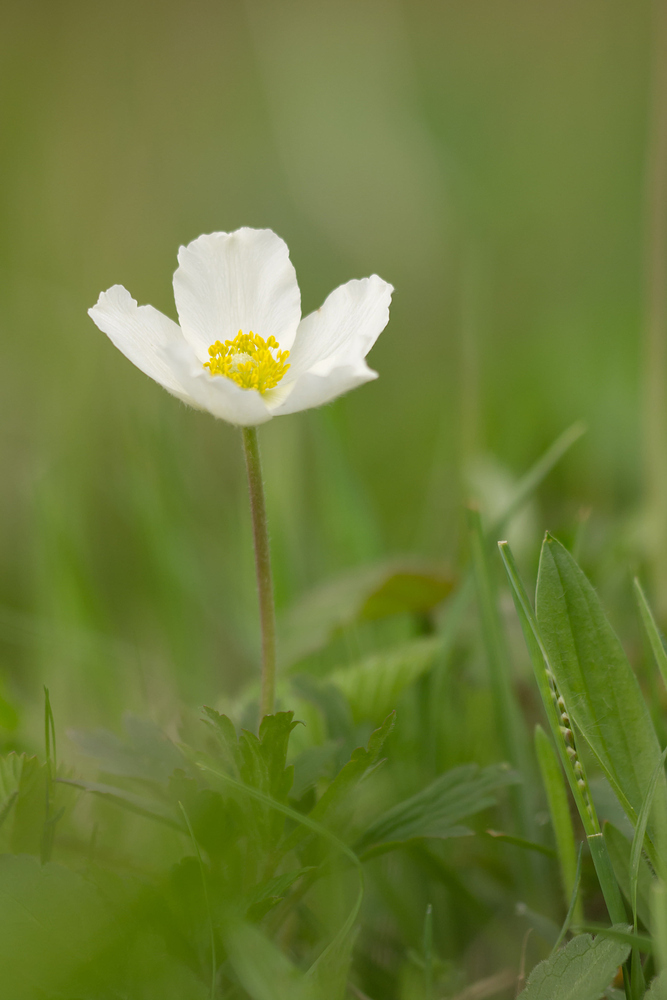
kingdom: Plantae
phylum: Tracheophyta
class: Magnoliopsida
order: Ranunculales
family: Ranunculaceae
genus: Anemone
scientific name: Anemone sylvestris
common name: Snowdrop anemone
